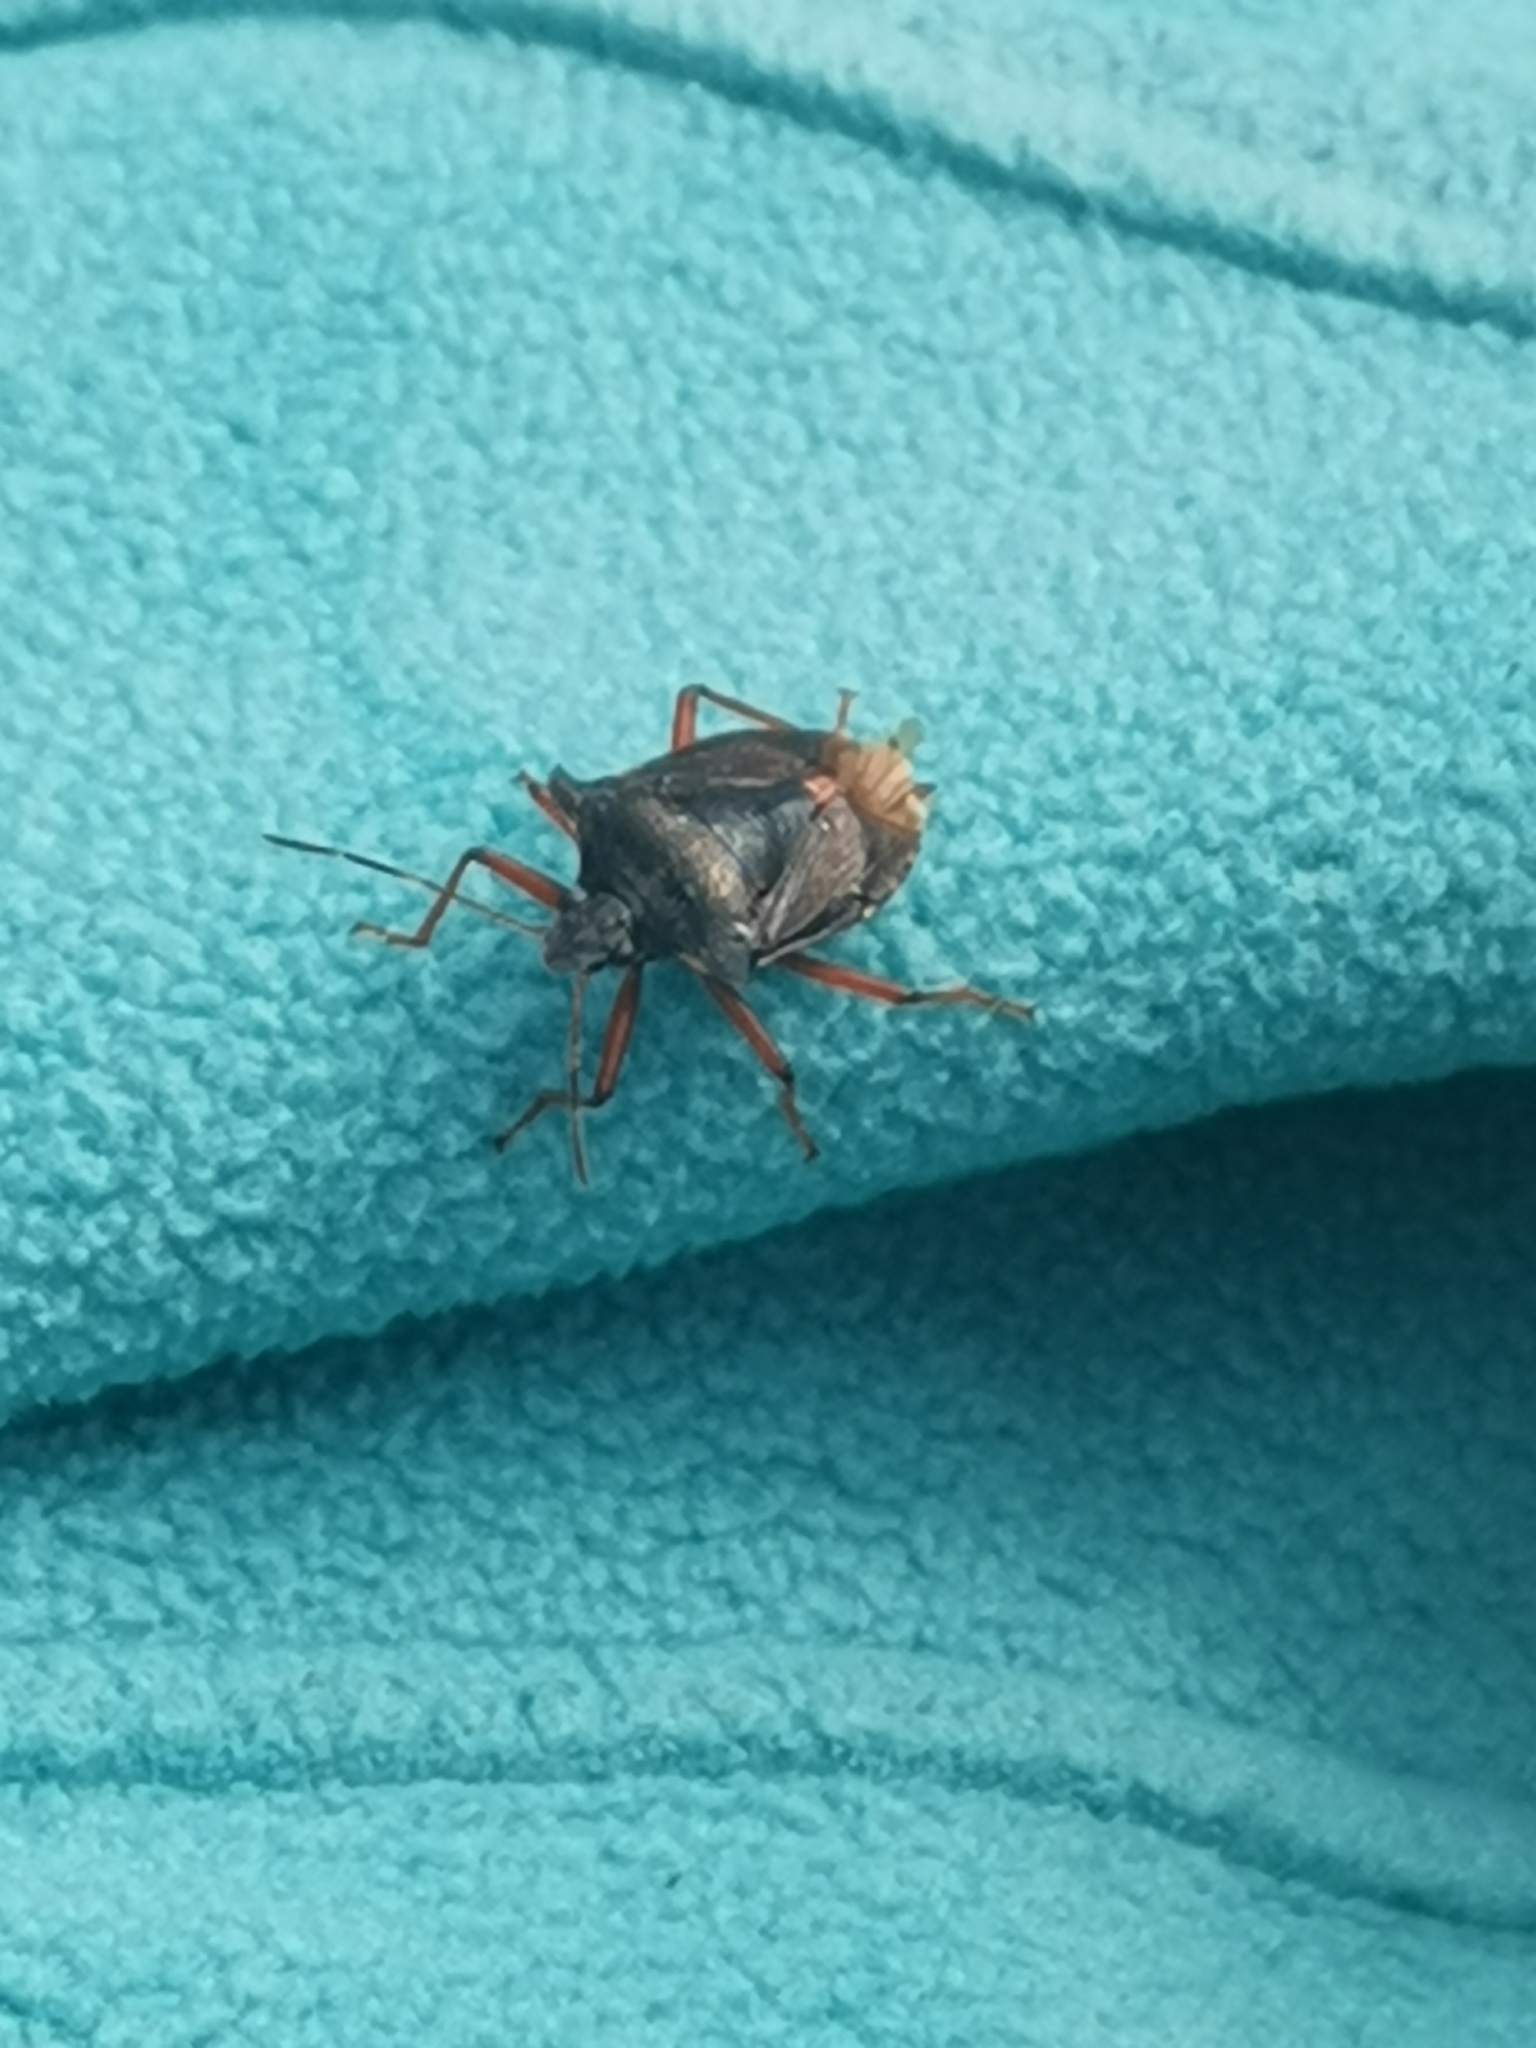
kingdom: Animalia
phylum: Arthropoda
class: Insecta
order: Hemiptera
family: Pentatomidae
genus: Pentatoma
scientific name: Pentatoma rufipes
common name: Forest bug
